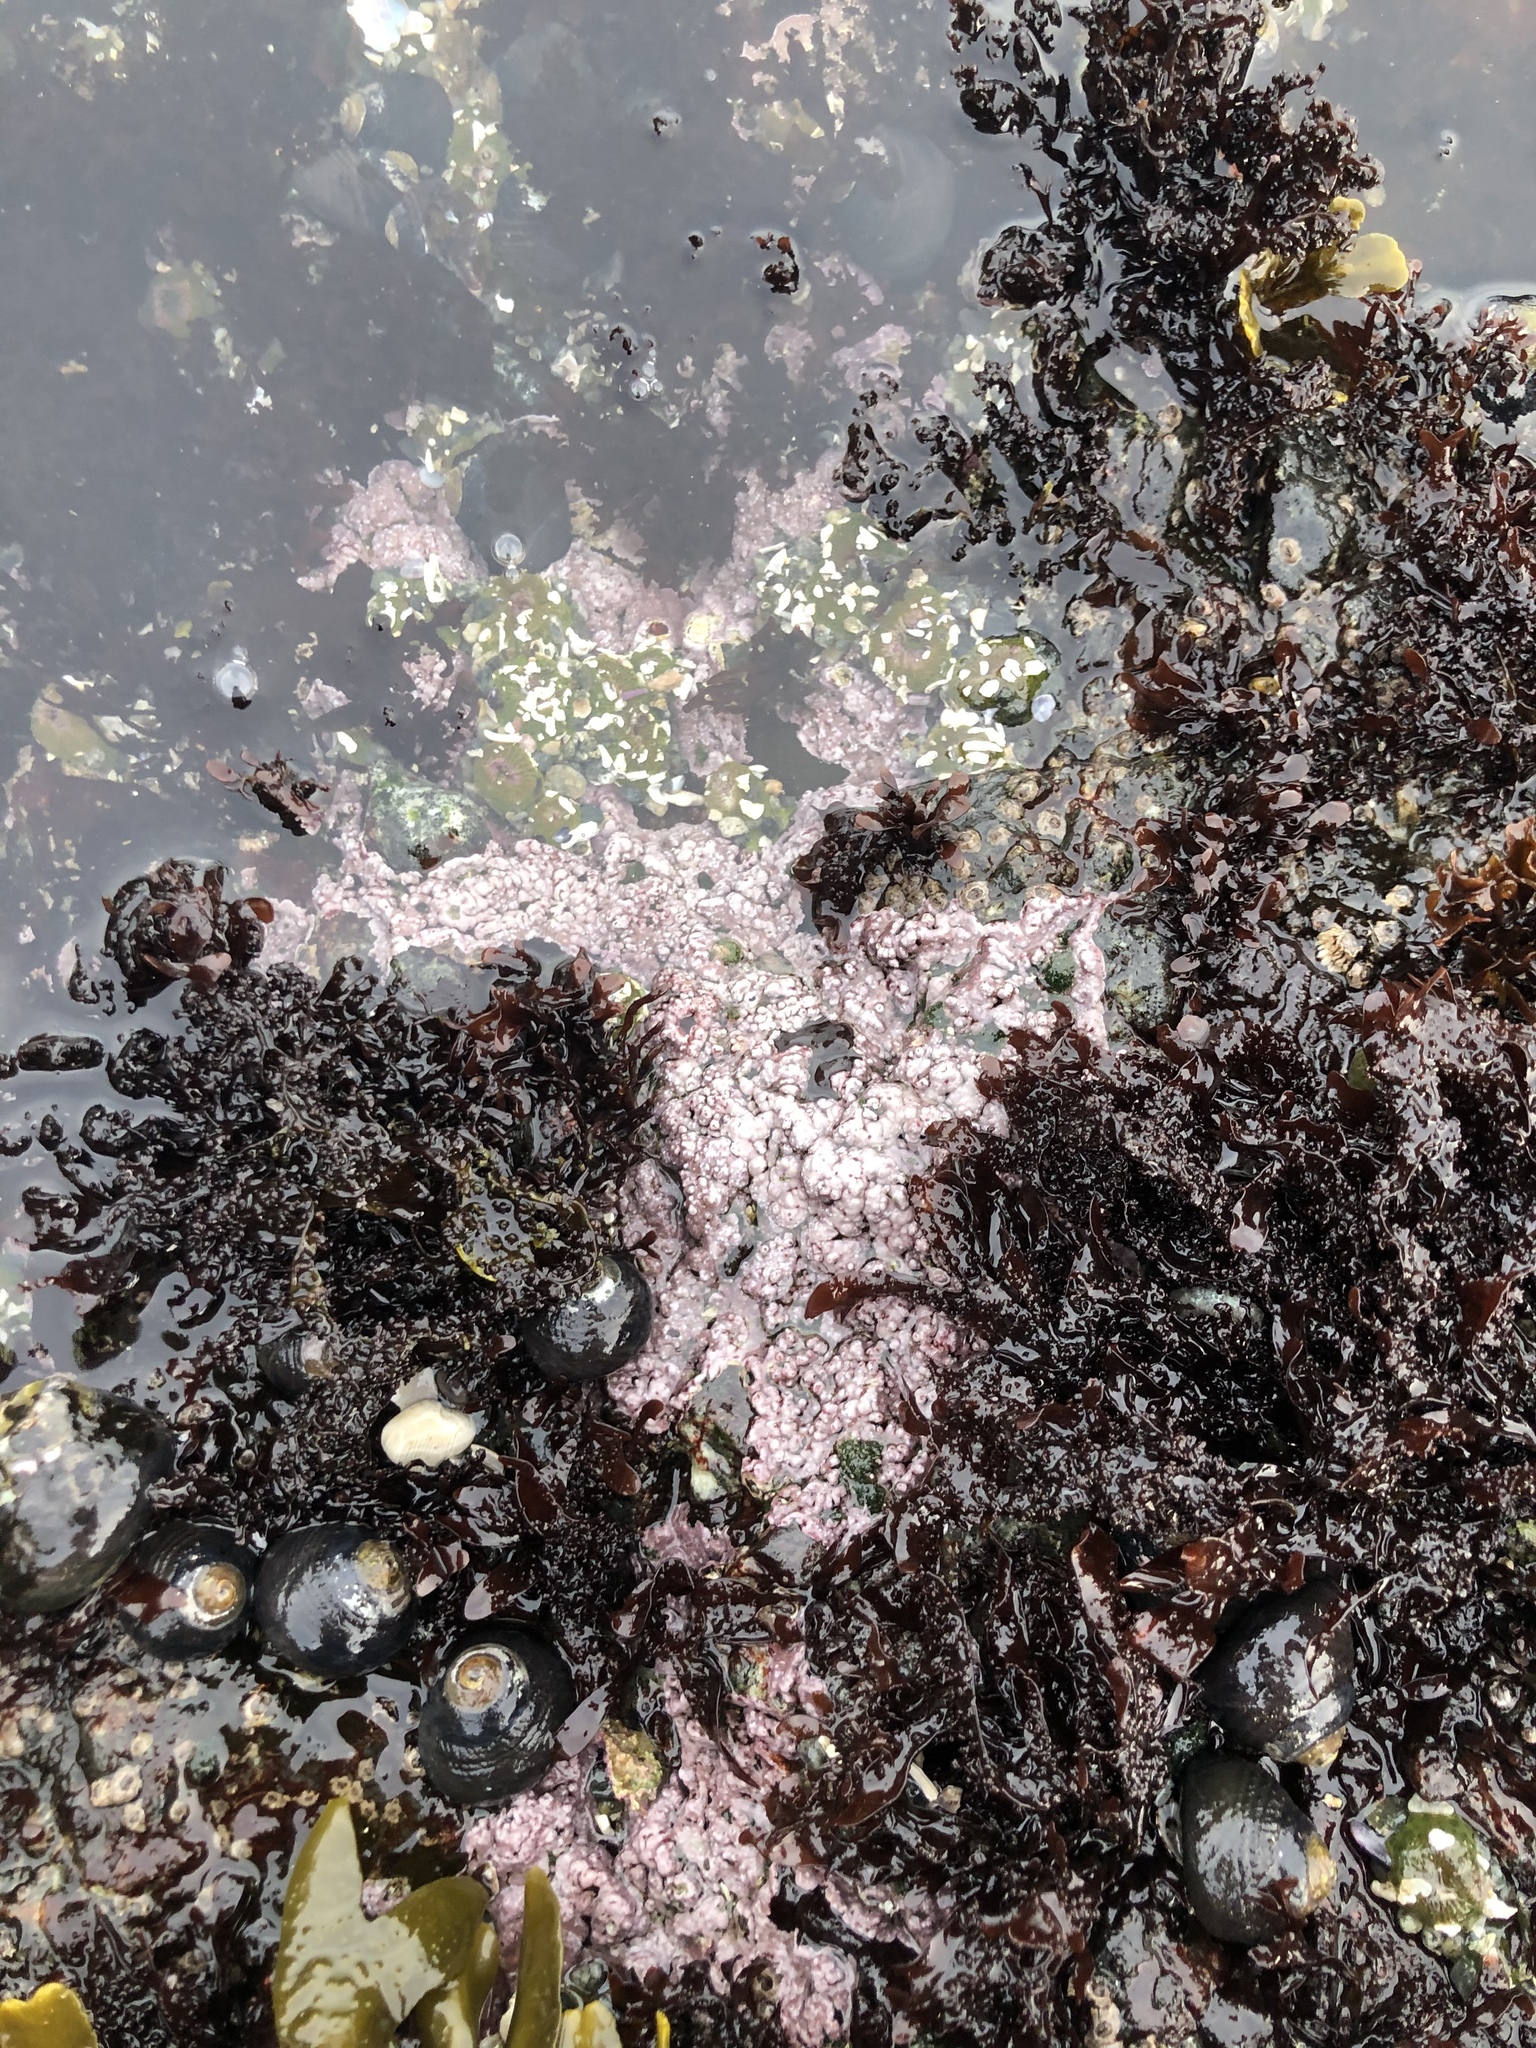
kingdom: Plantae
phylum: Rhodophyta
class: Florideophyceae
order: Corallinales
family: Corallinaceae
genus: Chamberlainium
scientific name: Chamberlainium tumidum
